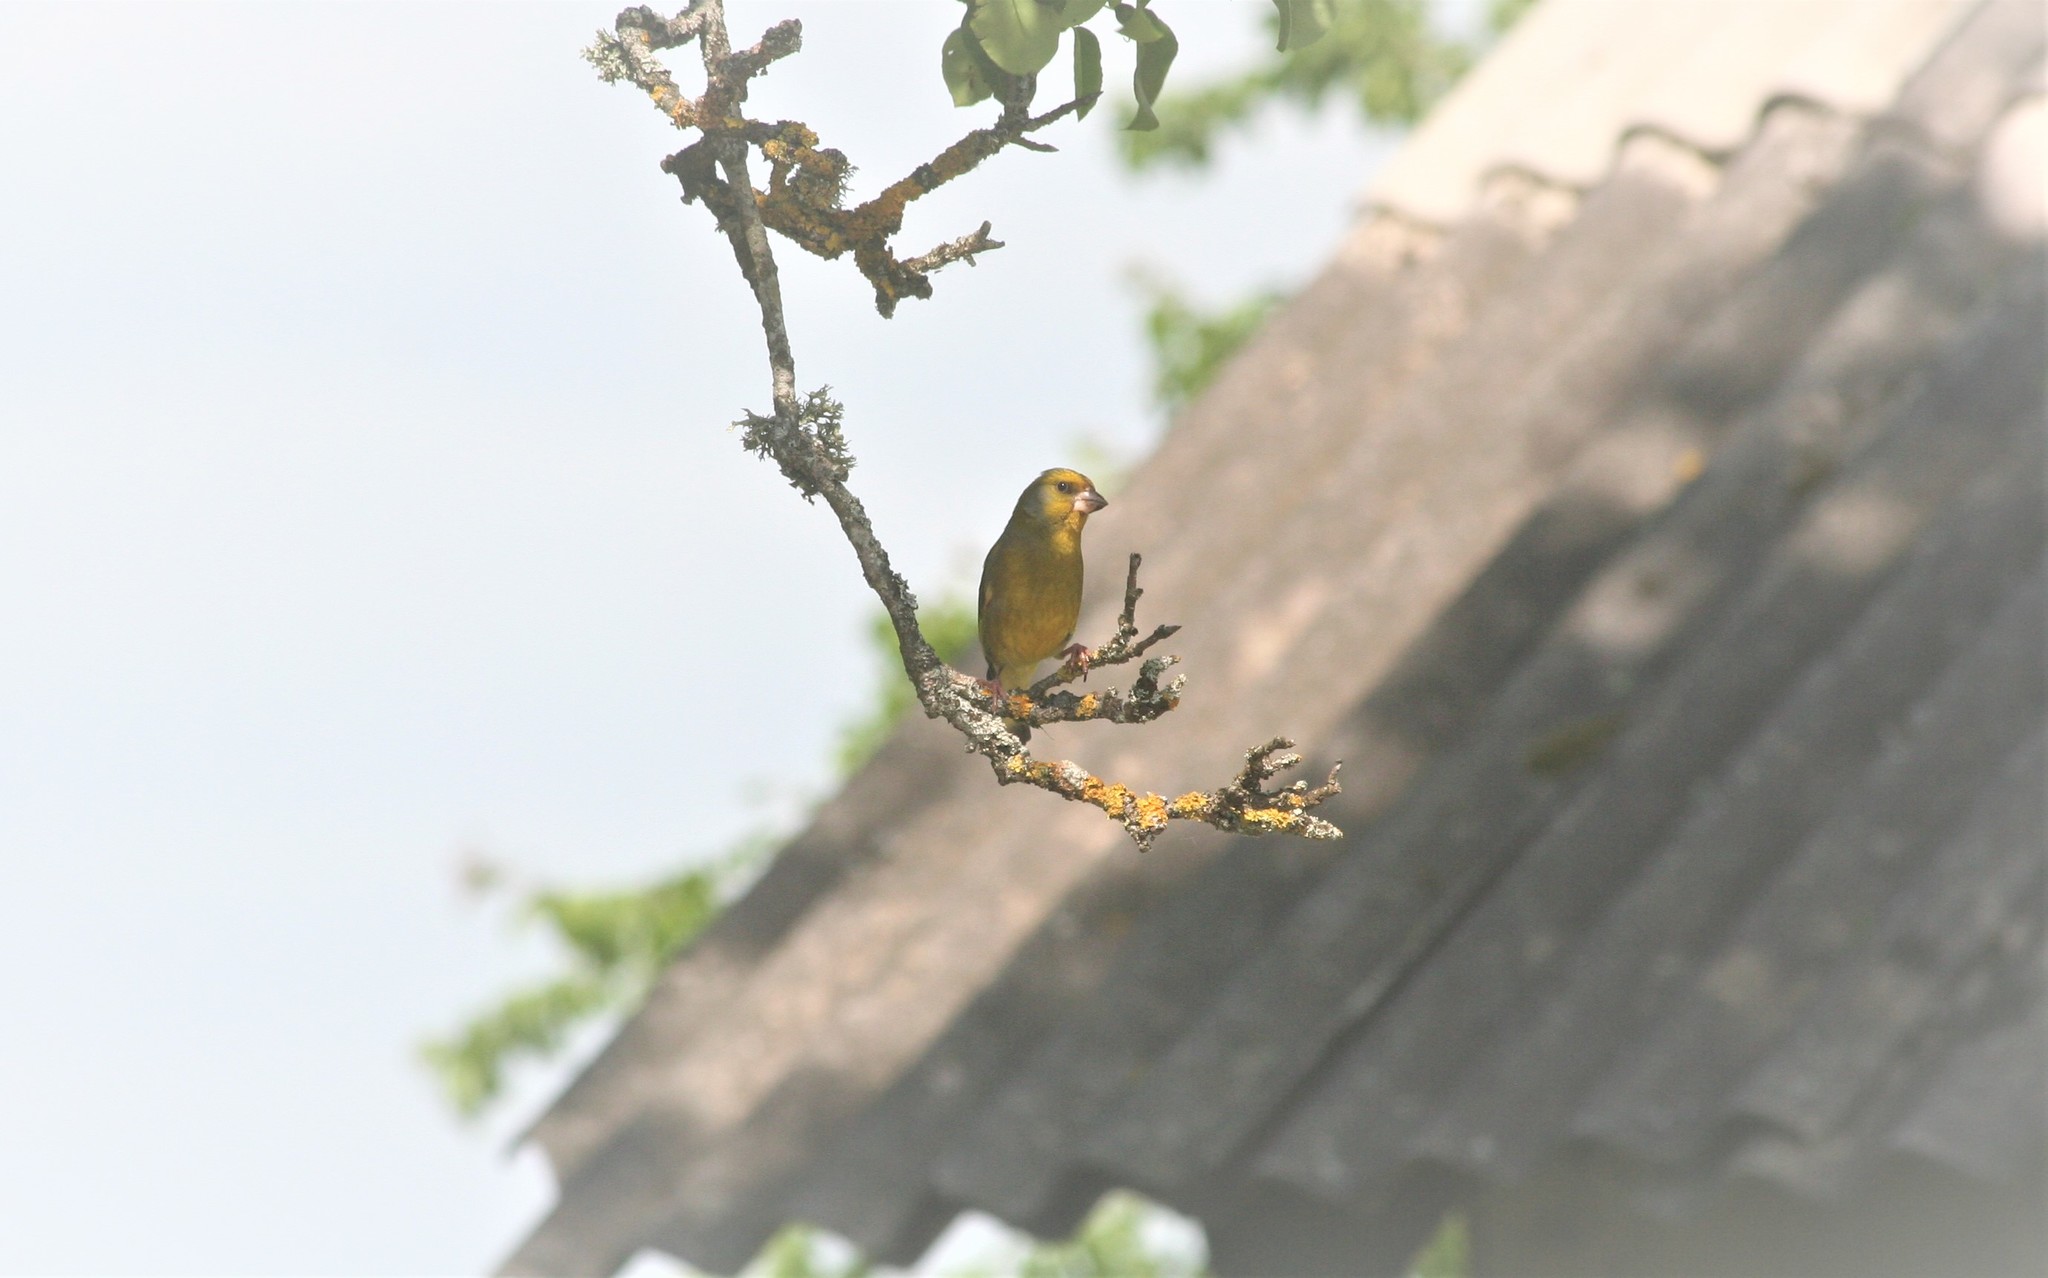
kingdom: Plantae
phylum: Tracheophyta
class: Liliopsida
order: Poales
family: Poaceae
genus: Chloris
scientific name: Chloris chloris
